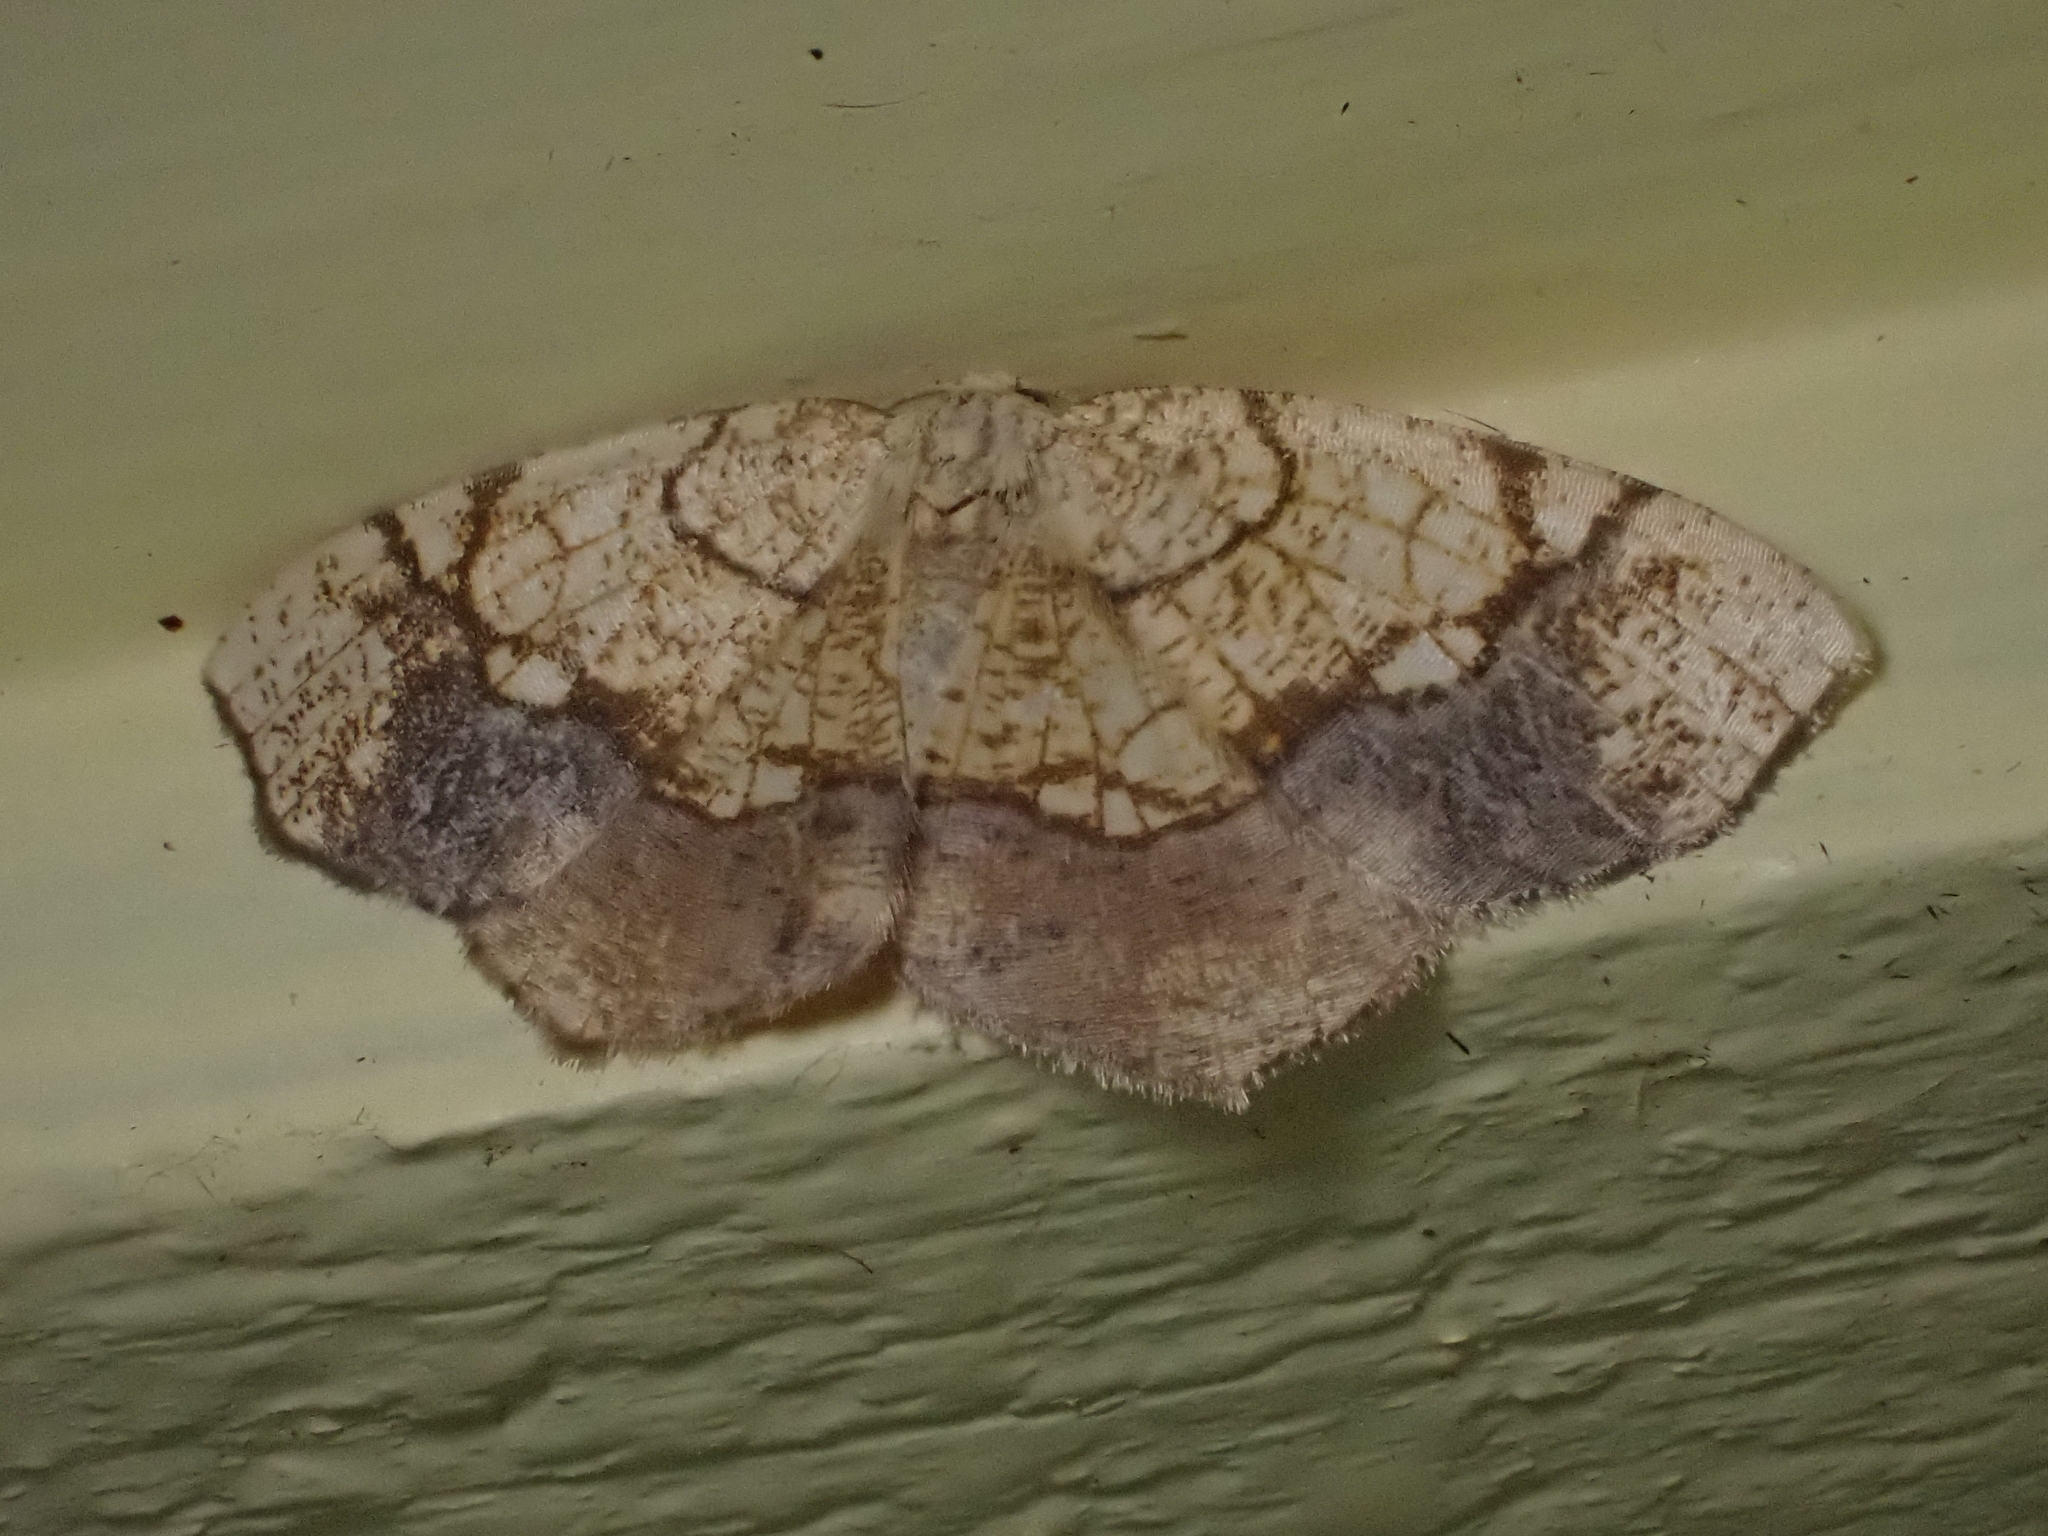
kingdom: Animalia
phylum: Arthropoda
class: Insecta
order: Lepidoptera
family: Geometridae
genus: Nematocampa
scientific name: Nematocampa resistaria
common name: Horned spanworm moth
